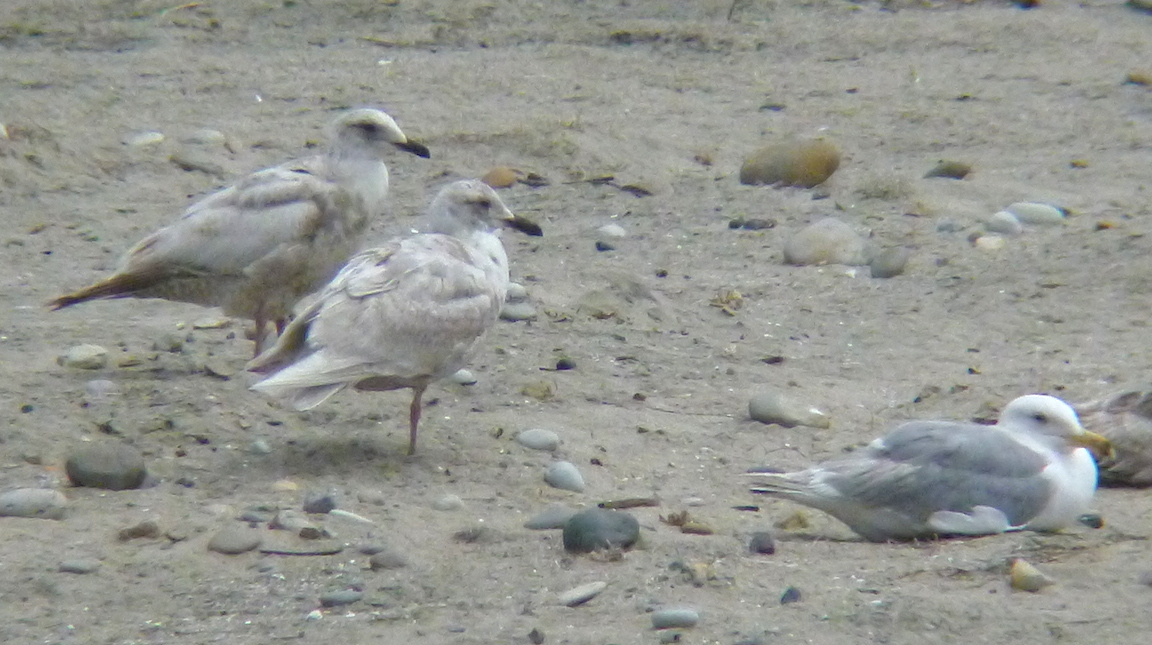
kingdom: Animalia
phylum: Chordata
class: Aves
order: Charadriiformes
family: Laridae
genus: Larus
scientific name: Larus glaucescens
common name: Glaucous-winged gull
